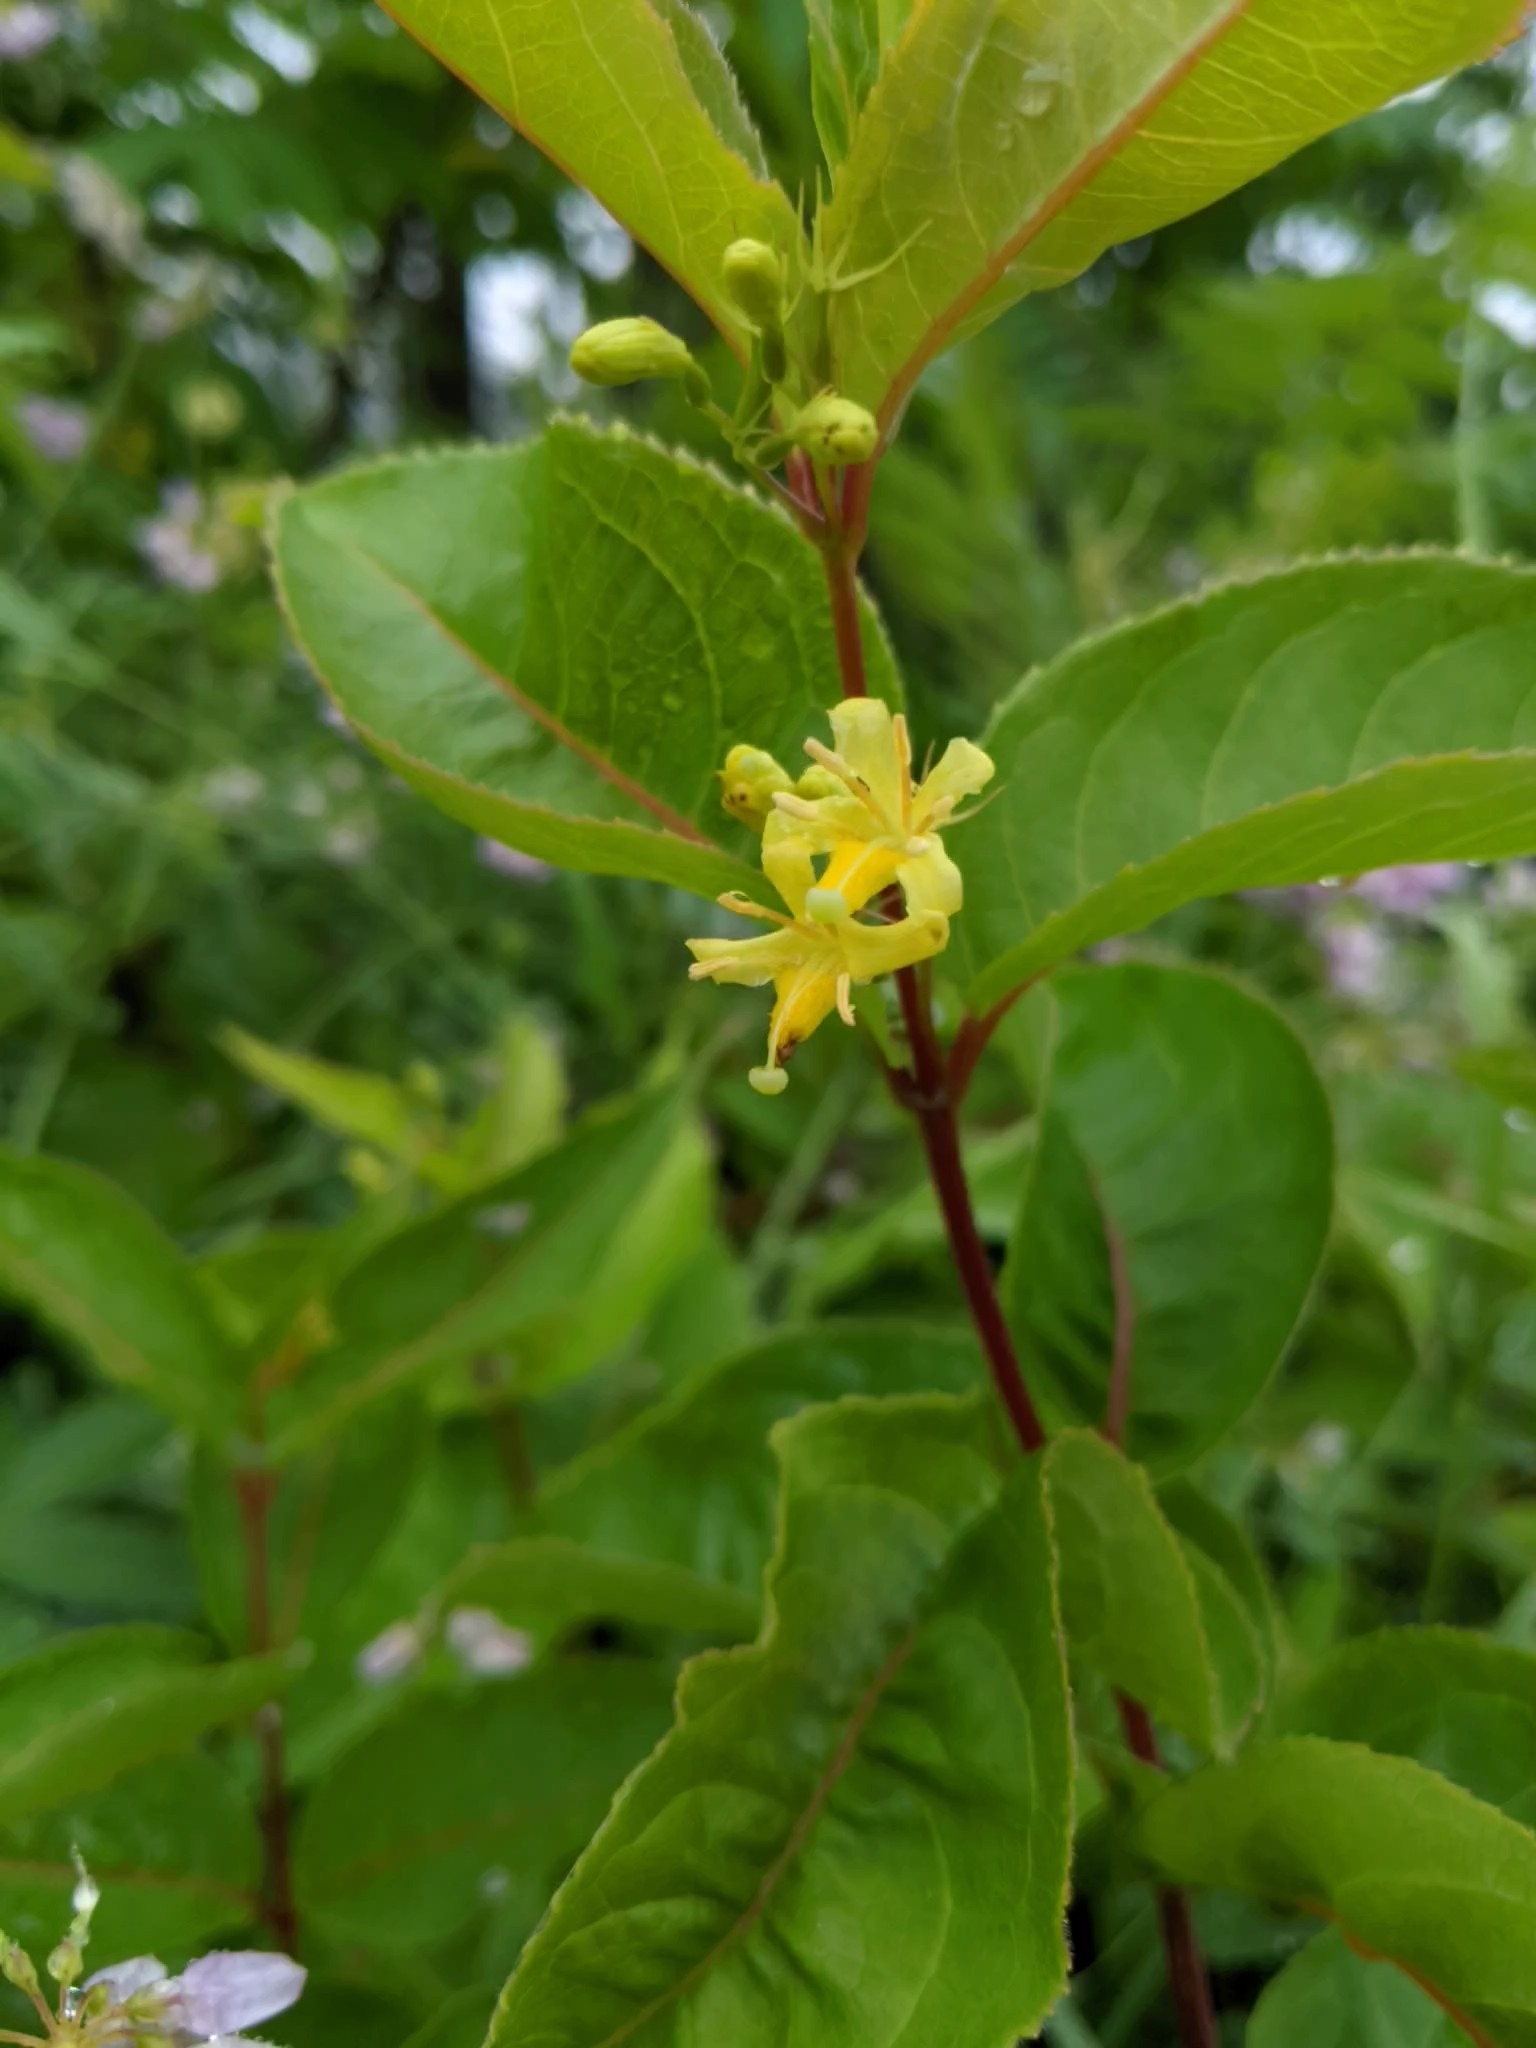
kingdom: Plantae
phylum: Tracheophyta
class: Magnoliopsida
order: Dipsacales
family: Caprifoliaceae
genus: Diervilla
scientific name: Diervilla lonicera
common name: Bush-honeysuckle
